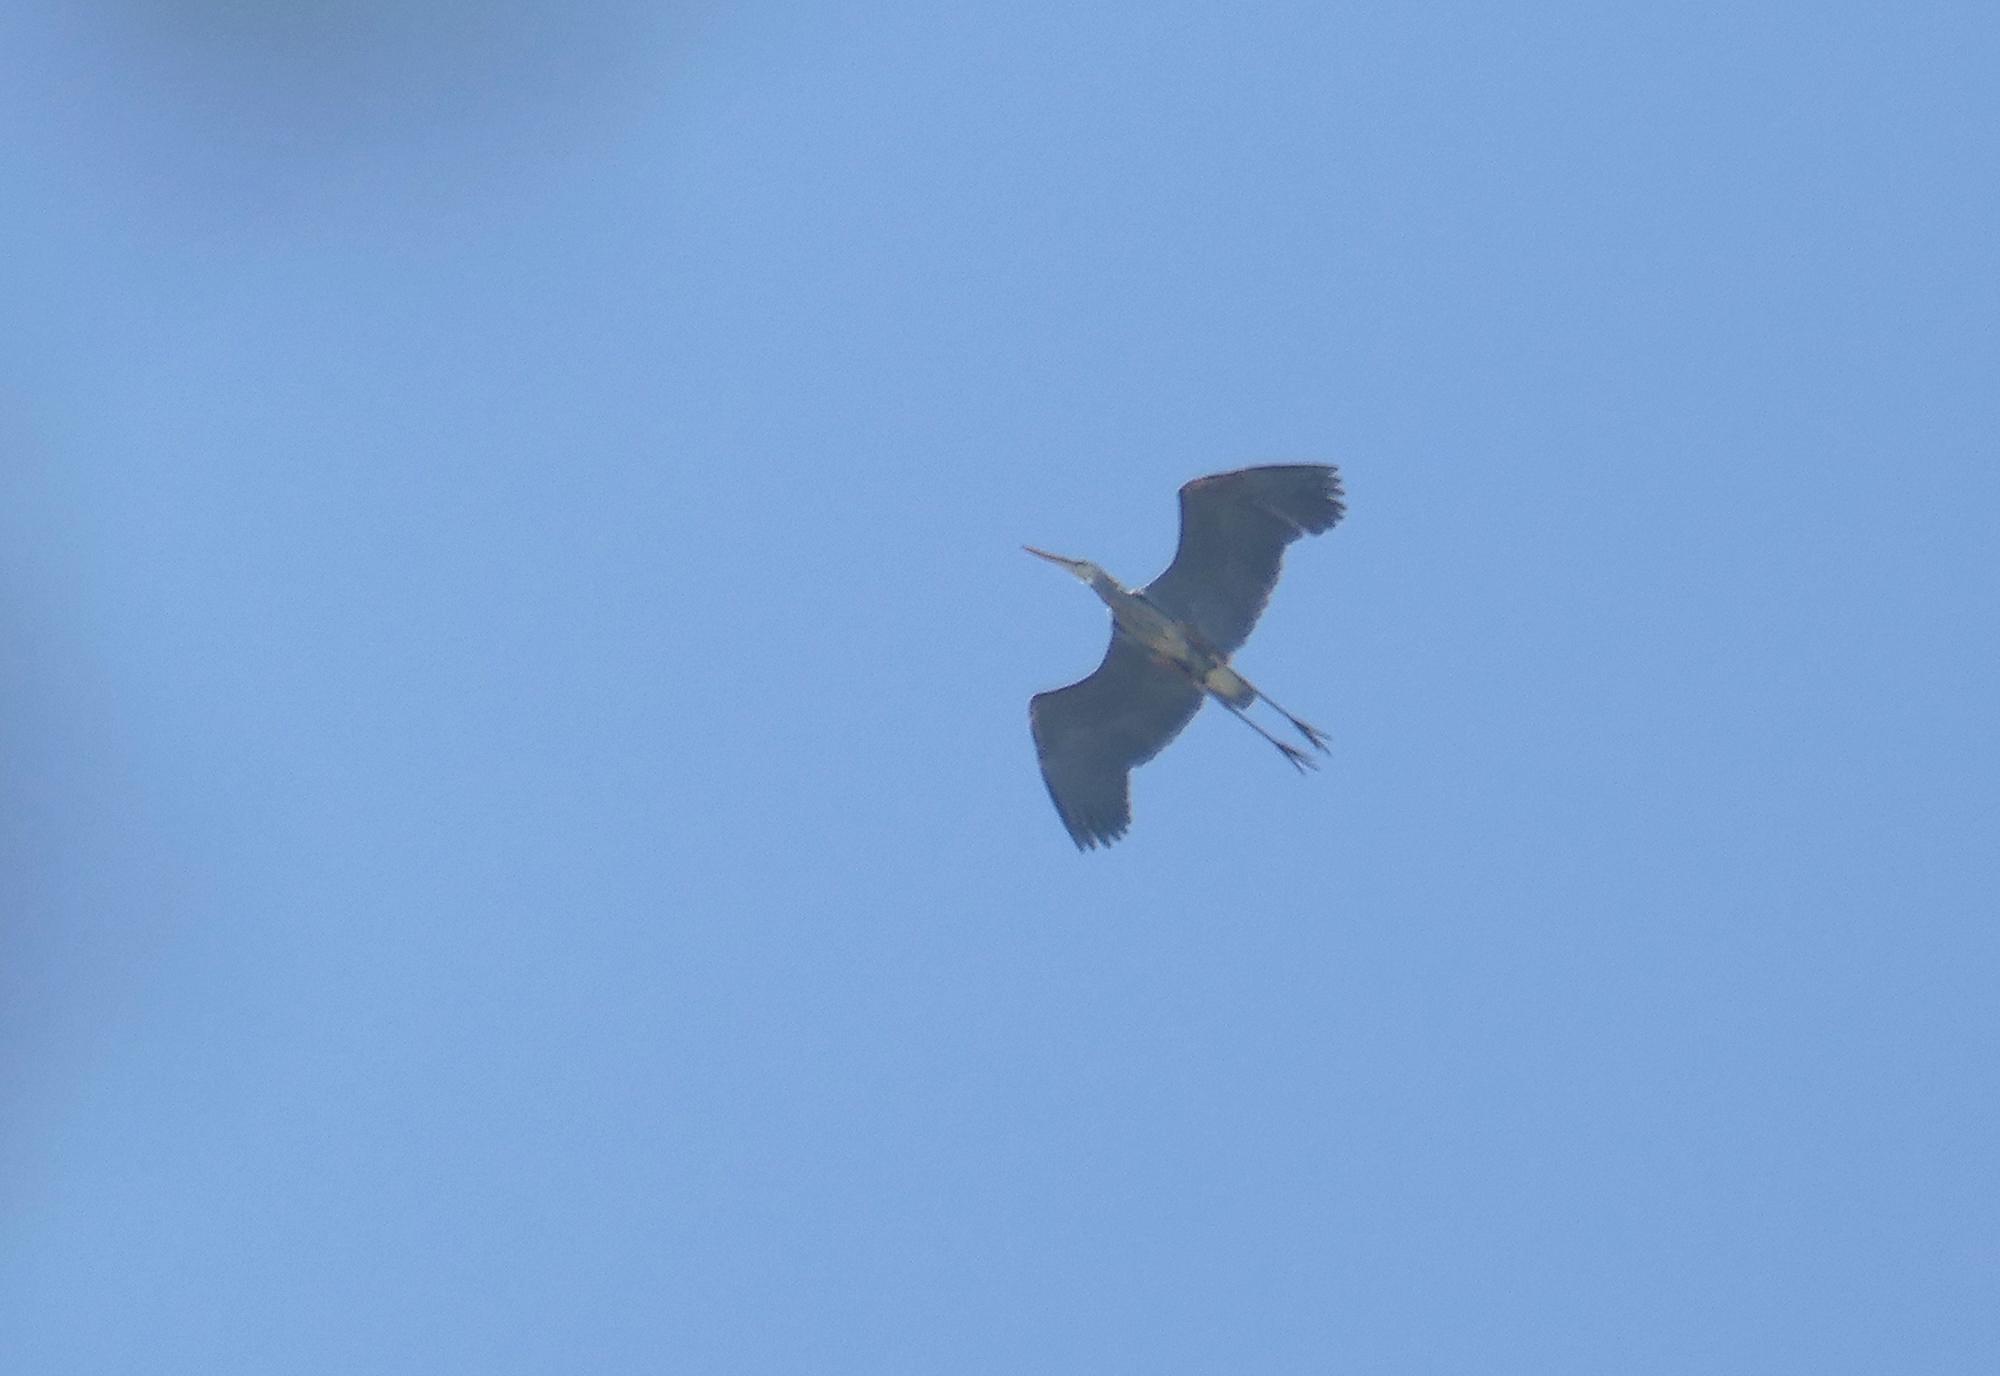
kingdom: Animalia
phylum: Chordata
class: Aves
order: Pelecaniformes
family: Ardeidae
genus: Ardea
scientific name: Ardea herodias
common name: Great blue heron
